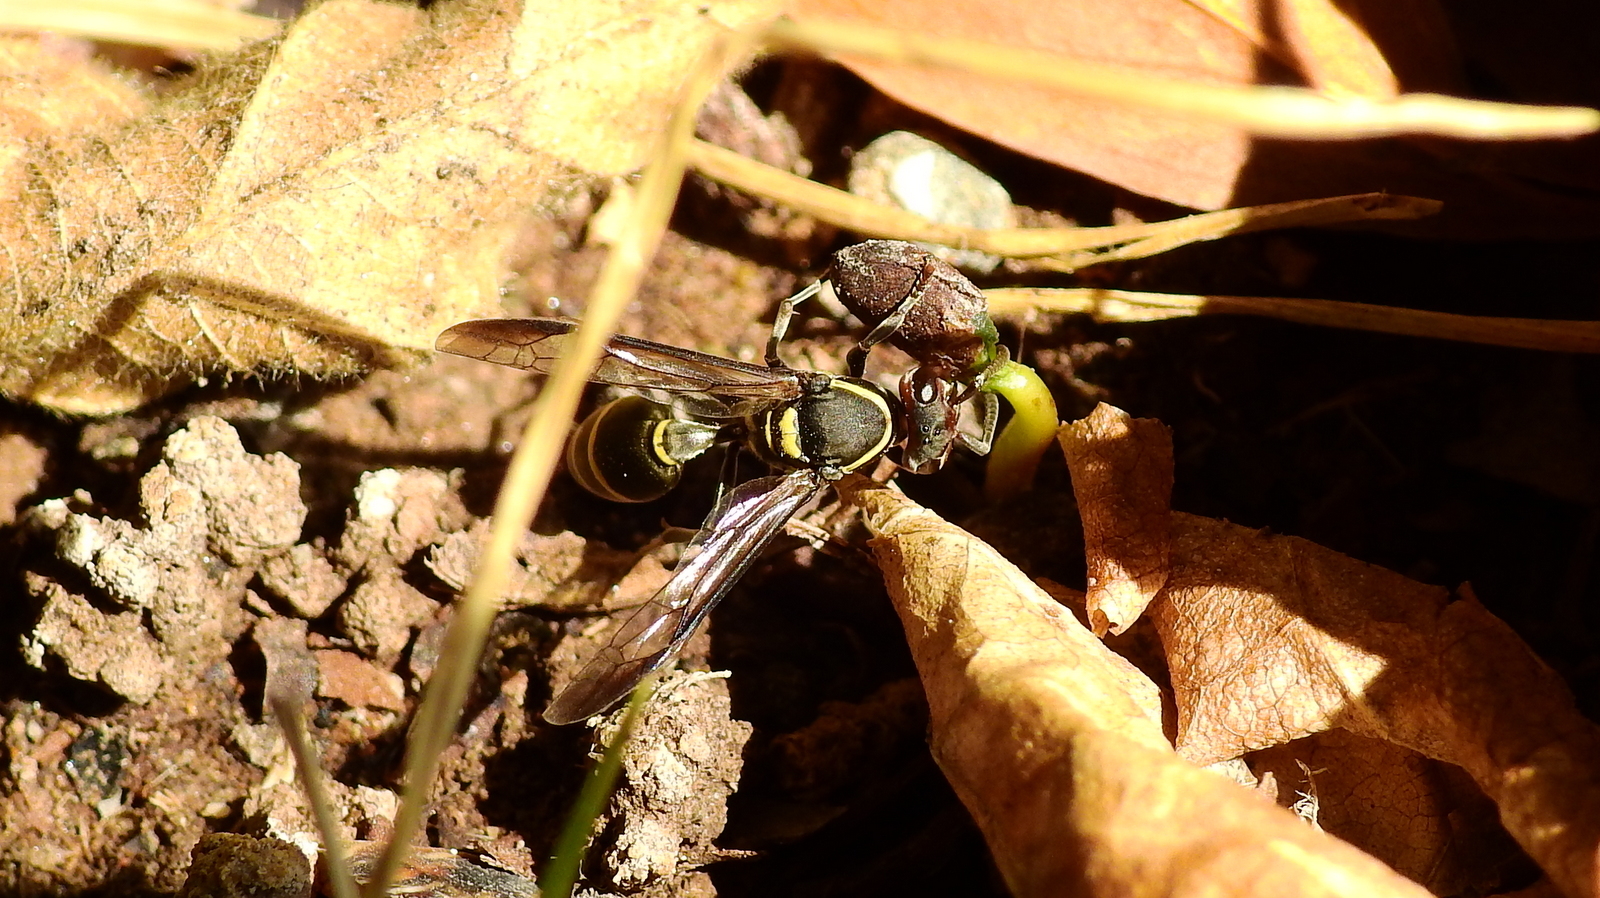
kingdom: Animalia
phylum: Arthropoda
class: Insecta
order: Hymenoptera
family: Eumenidae
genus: Polybia
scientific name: Polybia ruficeps
